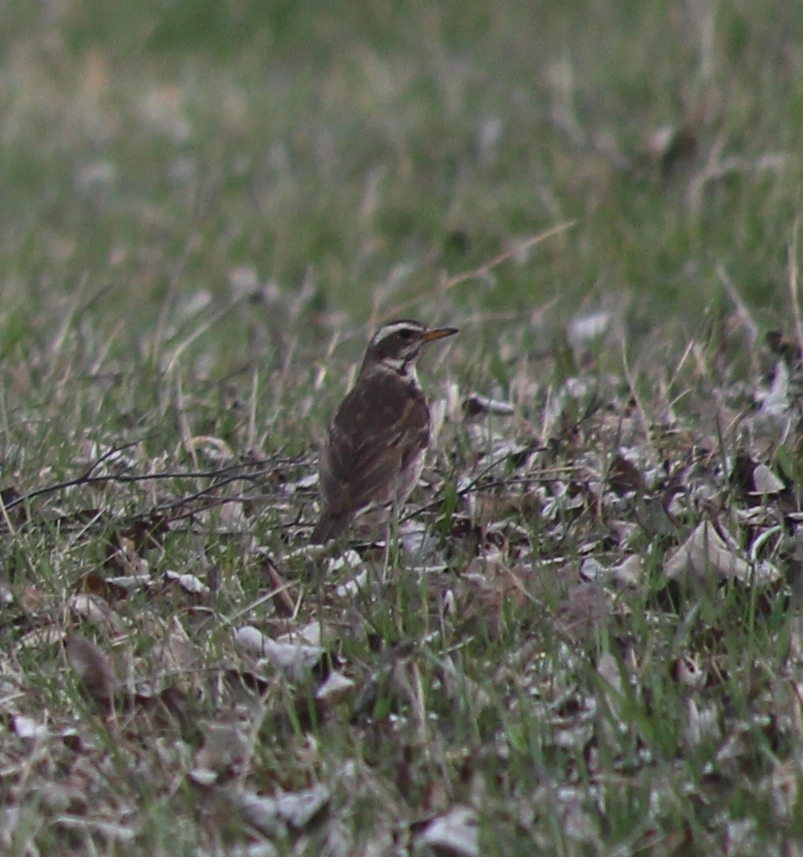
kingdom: Animalia
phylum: Chordata
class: Aves
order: Passeriformes
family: Turdidae
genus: Turdus
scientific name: Turdus
